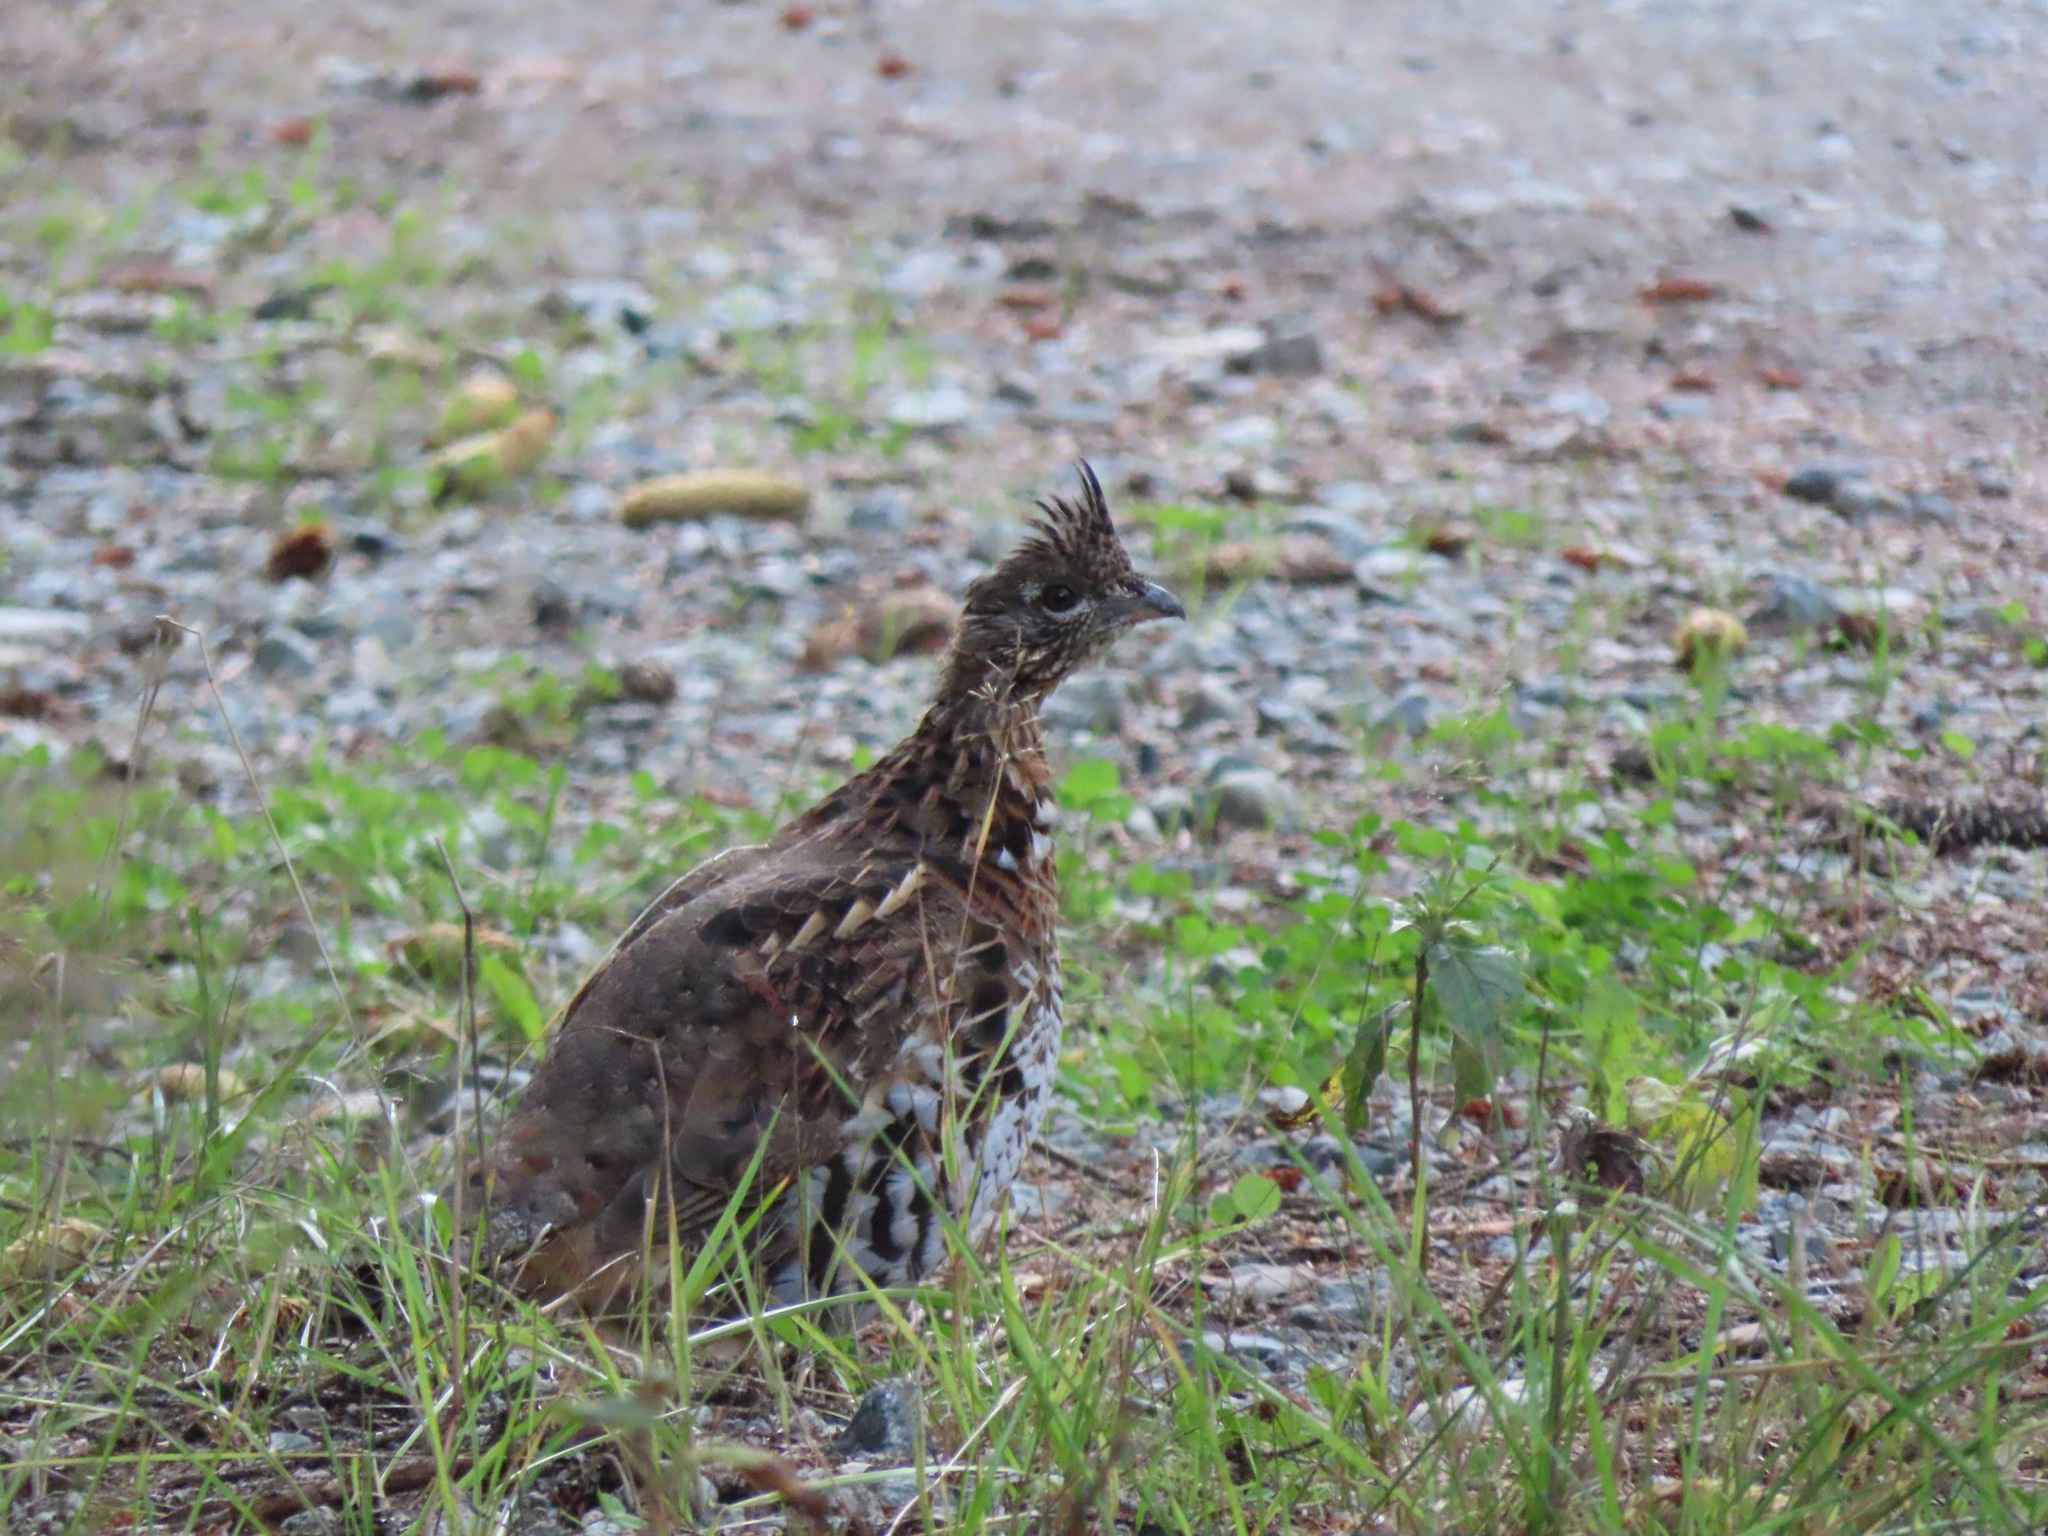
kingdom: Animalia
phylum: Chordata
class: Aves
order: Galliformes
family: Phasianidae
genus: Bonasa
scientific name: Bonasa umbellus
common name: Ruffed grouse
